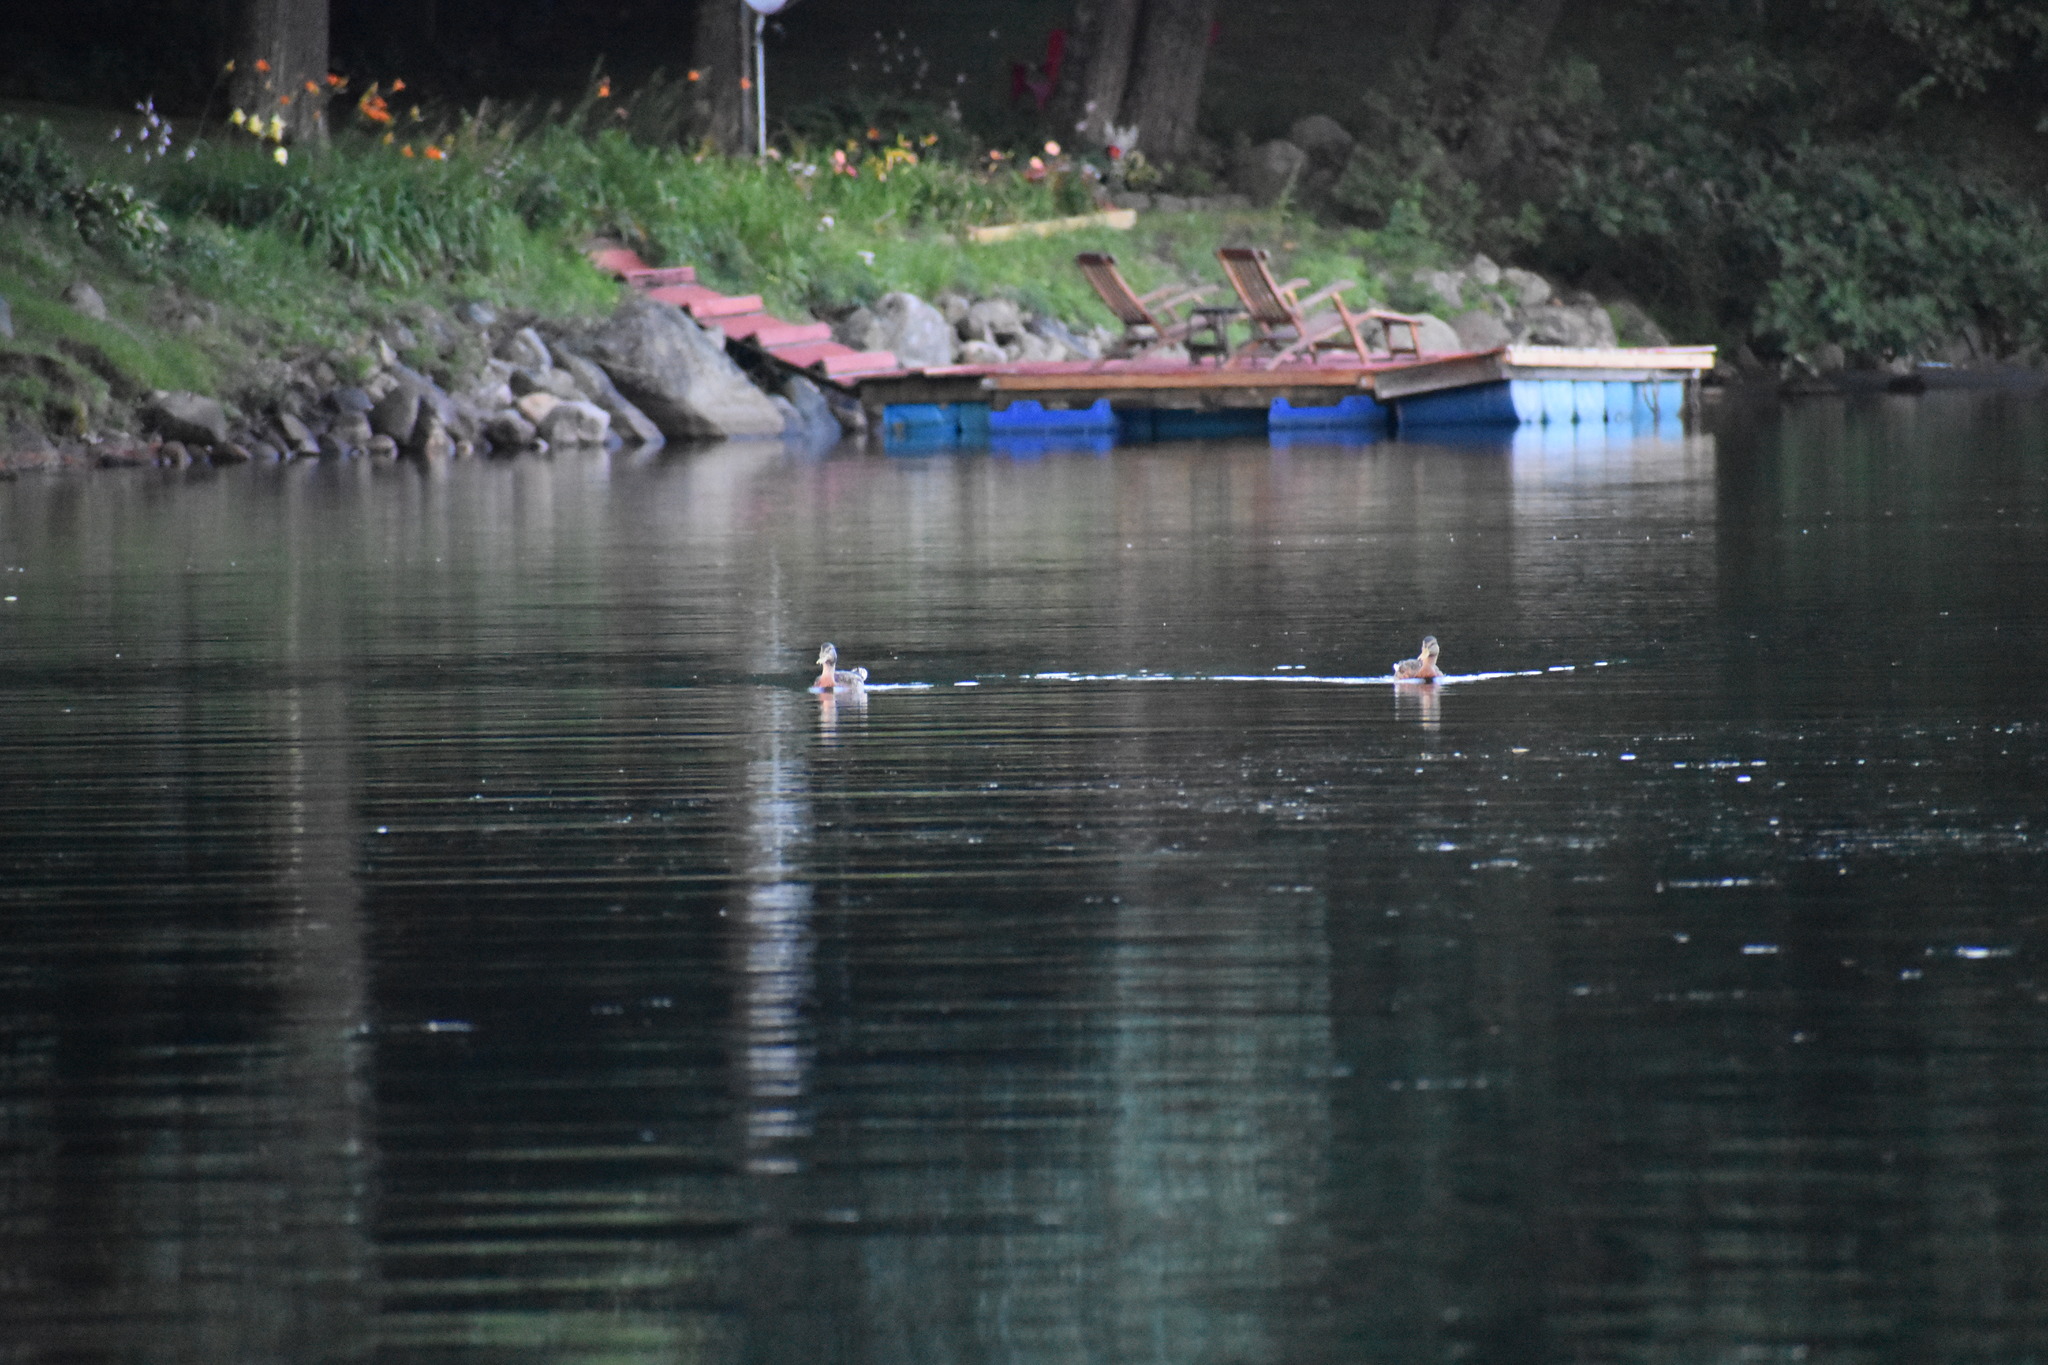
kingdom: Animalia
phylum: Chordata
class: Aves
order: Anseriformes
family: Anatidae
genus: Anas
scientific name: Anas platyrhynchos
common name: Mallard
